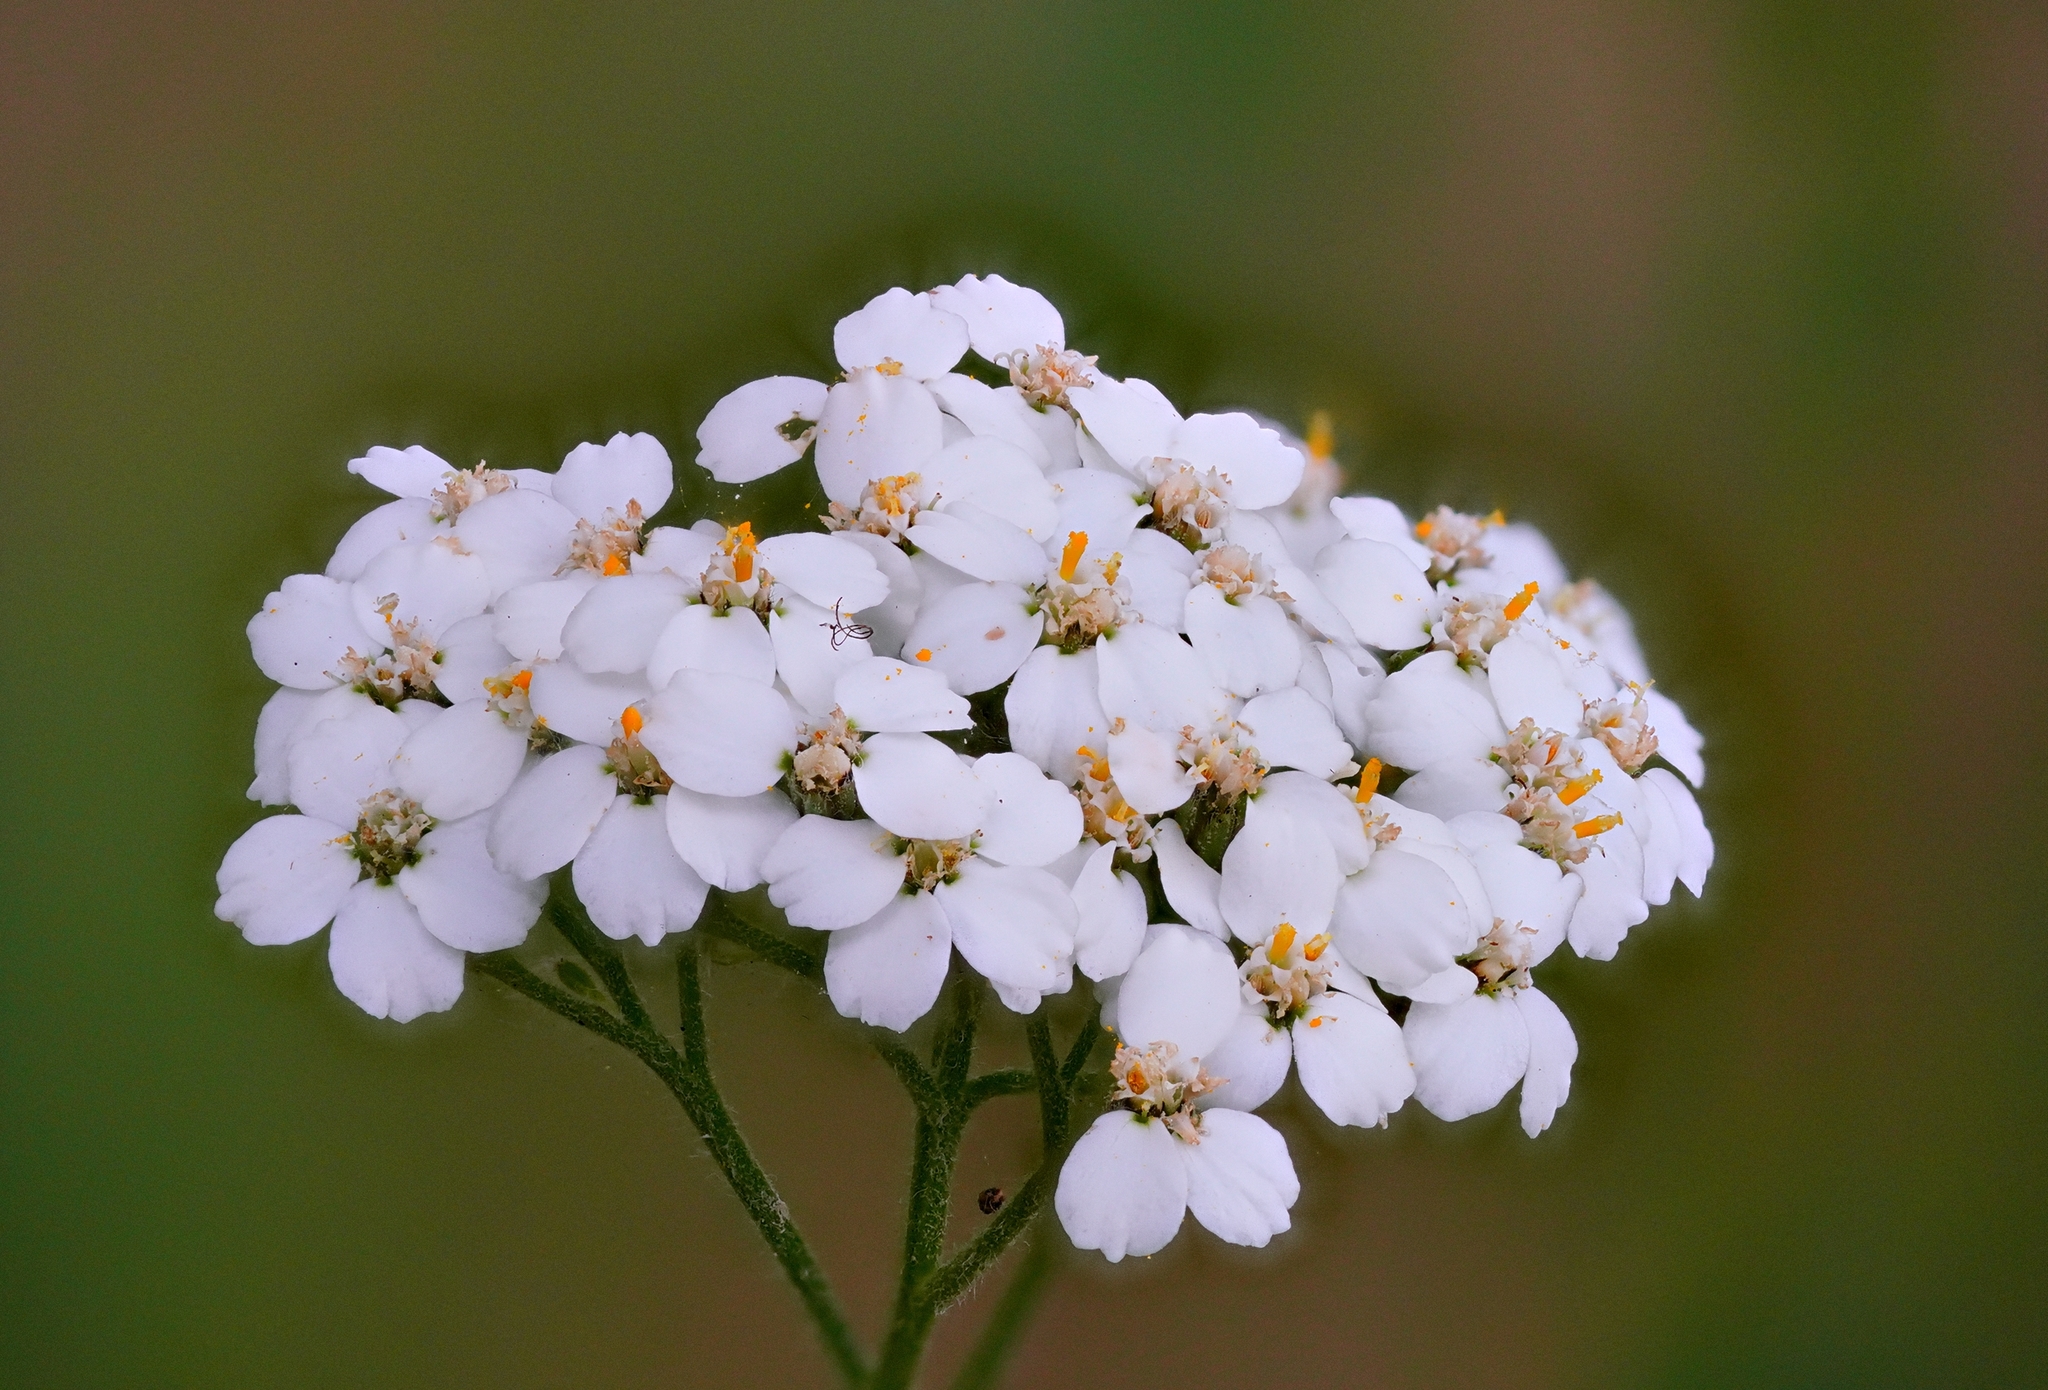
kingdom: Plantae
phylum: Tracheophyta
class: Magnoliopsida
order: Asterales
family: Asteraceae
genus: Achillea
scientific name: Achillea millefolium
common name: Yarrow
